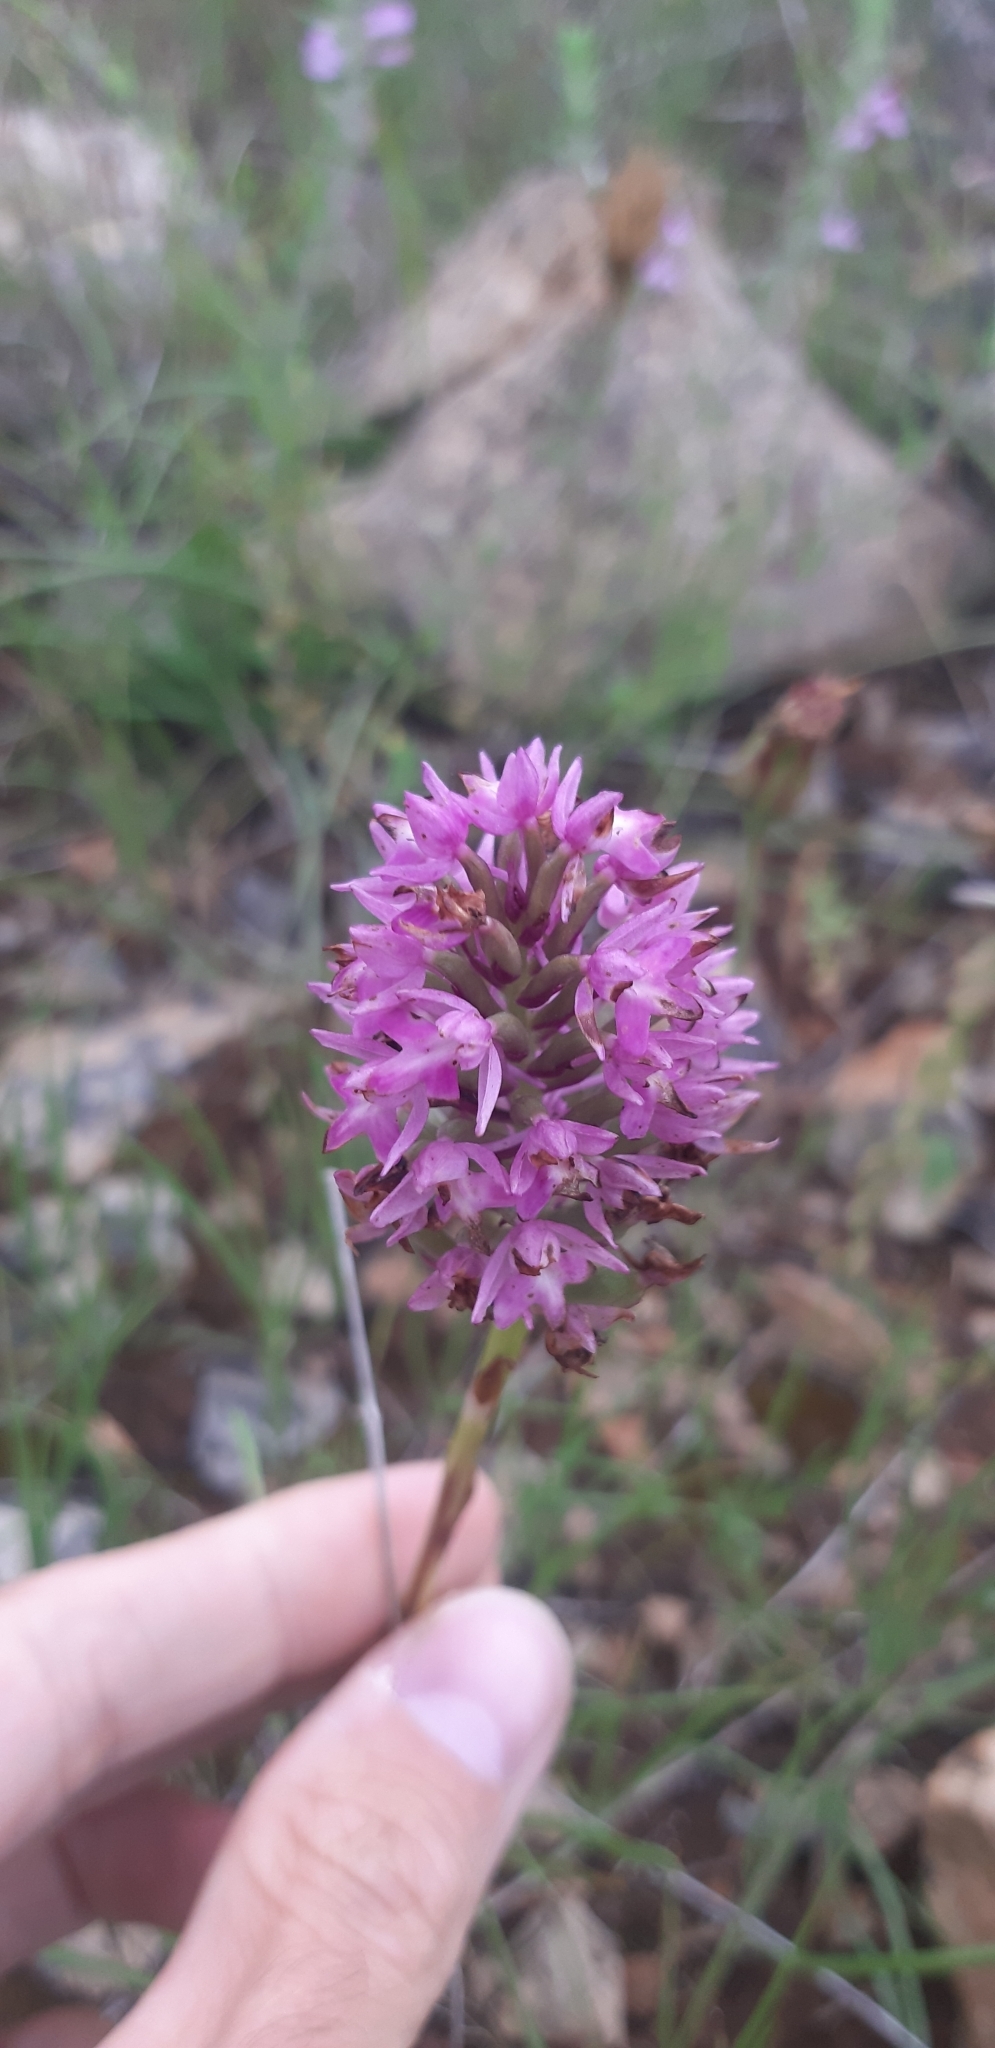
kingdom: Plantae
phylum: Tracheophyta
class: Liliopsida
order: Asparagales
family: Orchidaceae
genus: Anacamptis
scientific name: Anacamptis pyramidalis
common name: Pyramidal orchid
